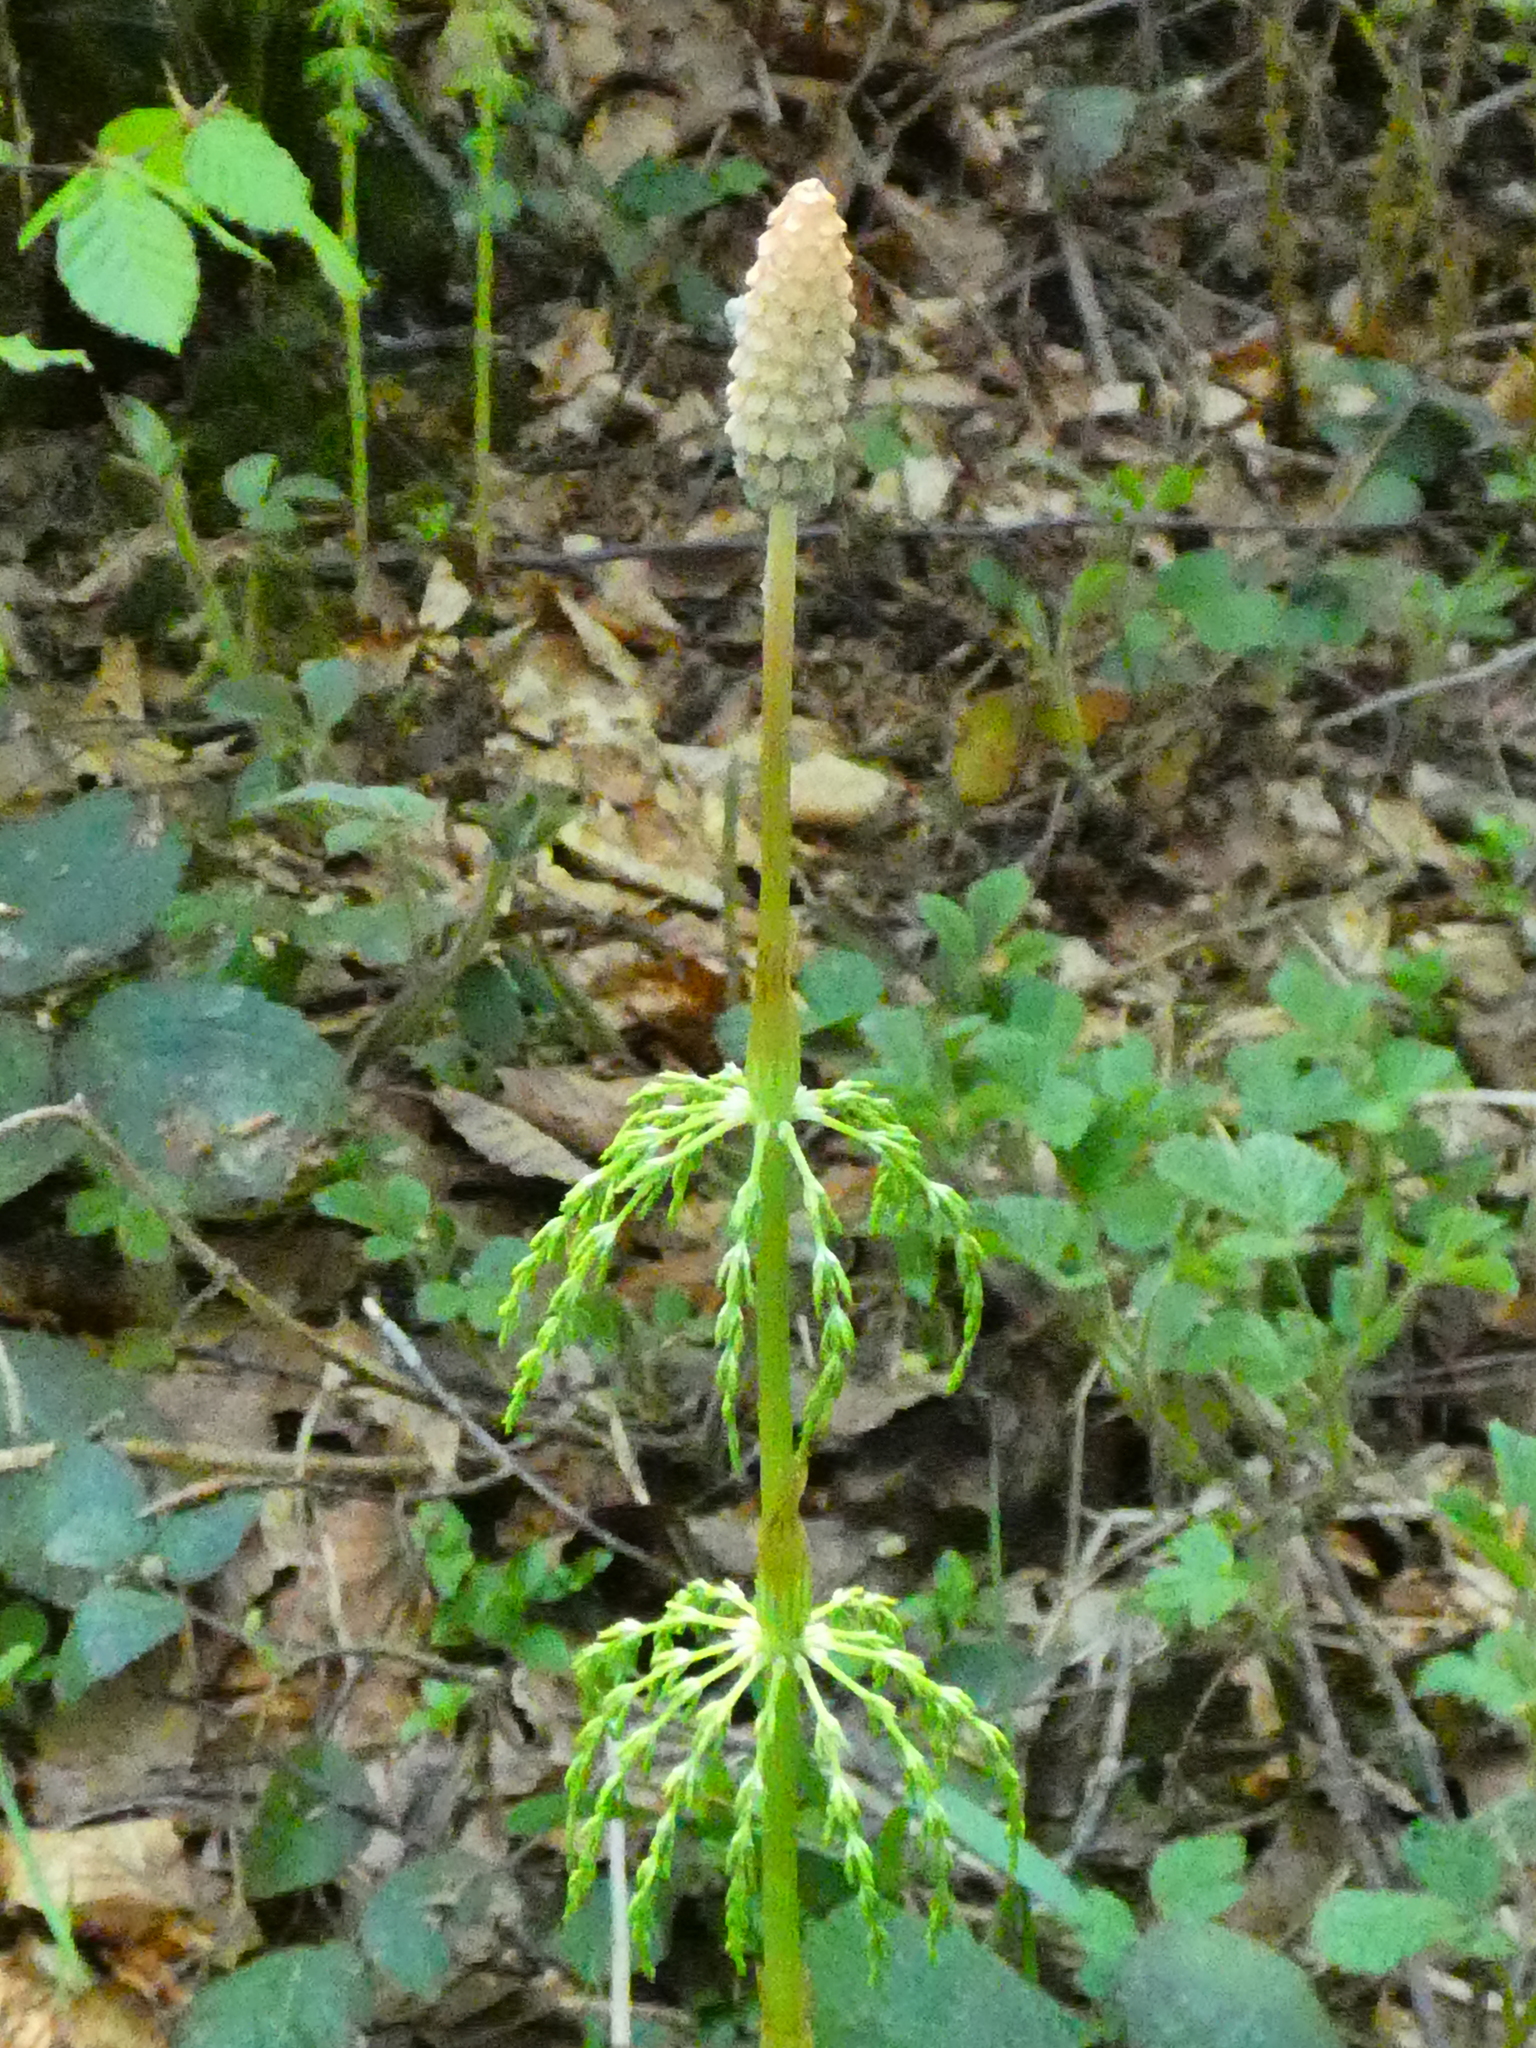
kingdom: Plantae
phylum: Tracheophyta
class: Polypodiopsida
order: Equisetales
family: Equisetaceae
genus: Equisetum
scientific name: Equisetum sylvaticum
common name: Wood horsetail
